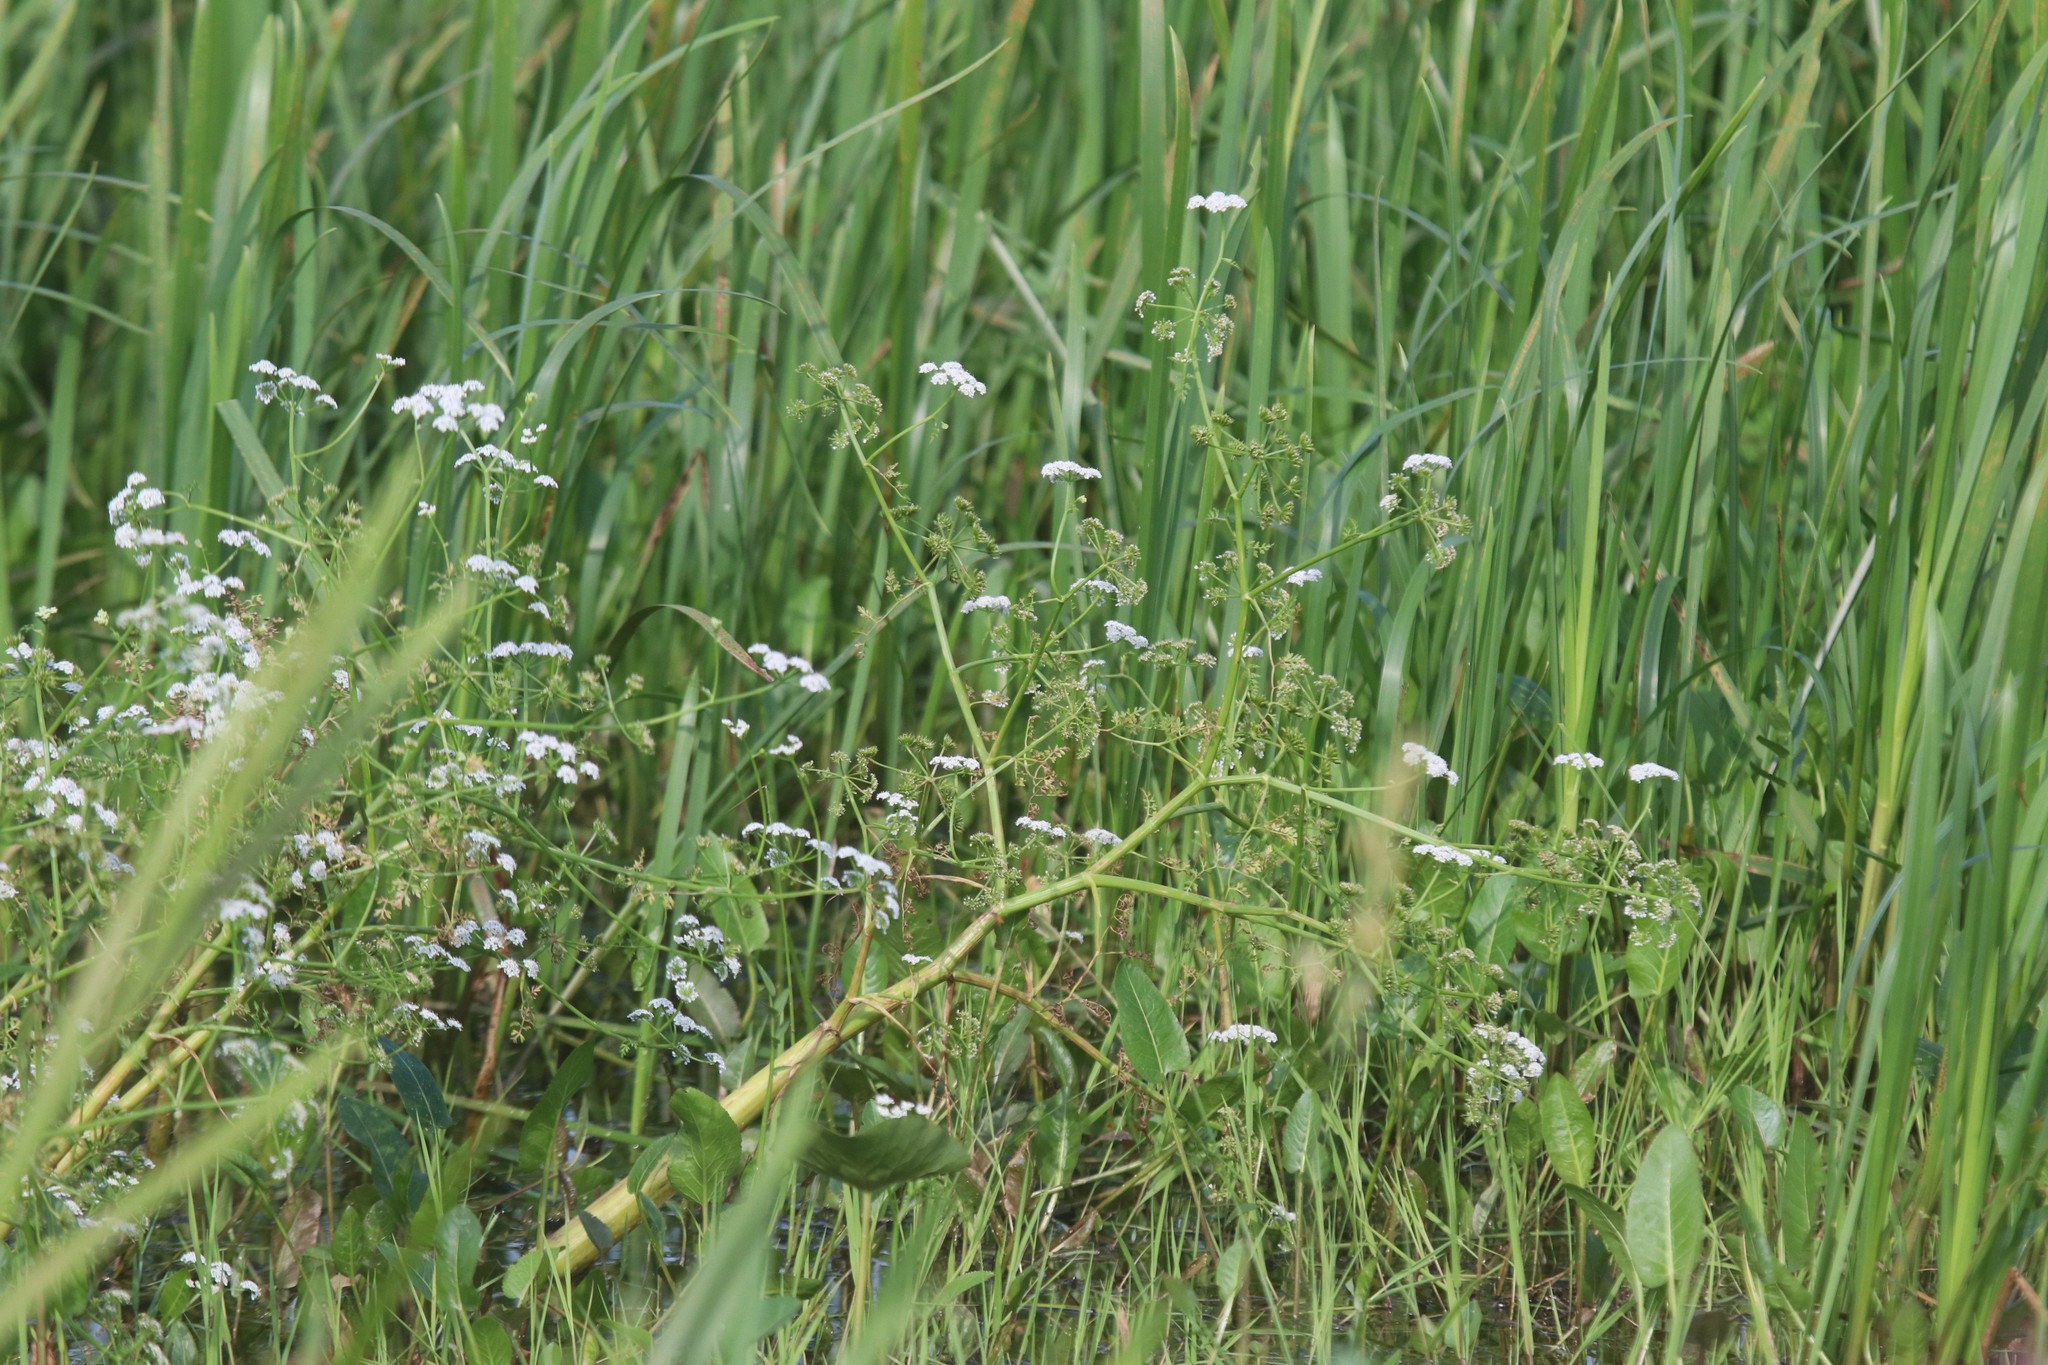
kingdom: Plantae
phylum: Tracheophyta
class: Magnoliopsida
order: Apiales
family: Apiaceae
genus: Oenanthe
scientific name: Oenanthe aquatica
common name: Fine-leaved water-dropwort
